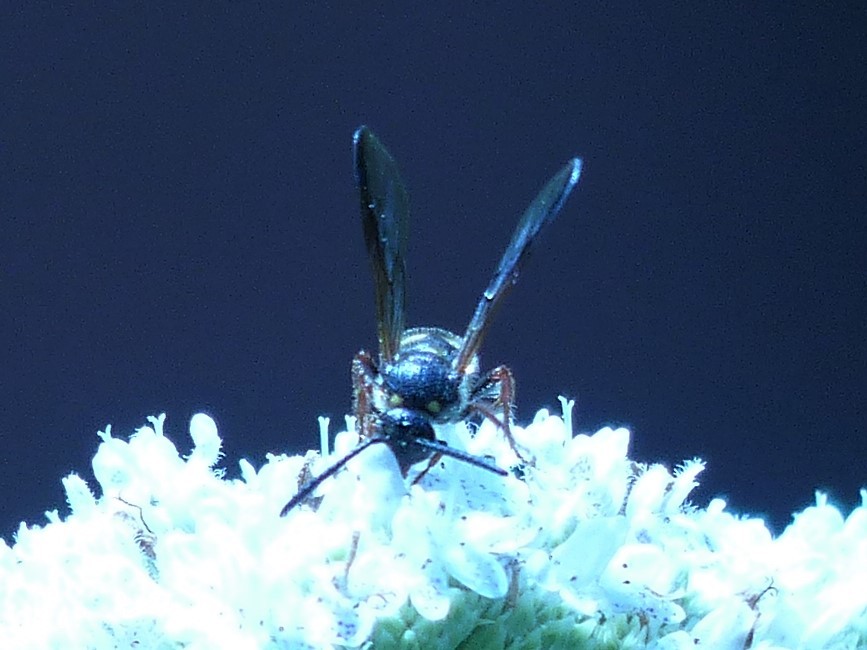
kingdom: Animalia
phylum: Arthropoda
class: Insecta
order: Hymenoptera
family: Scoliidae
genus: Scolia
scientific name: Scolia nobilitata
